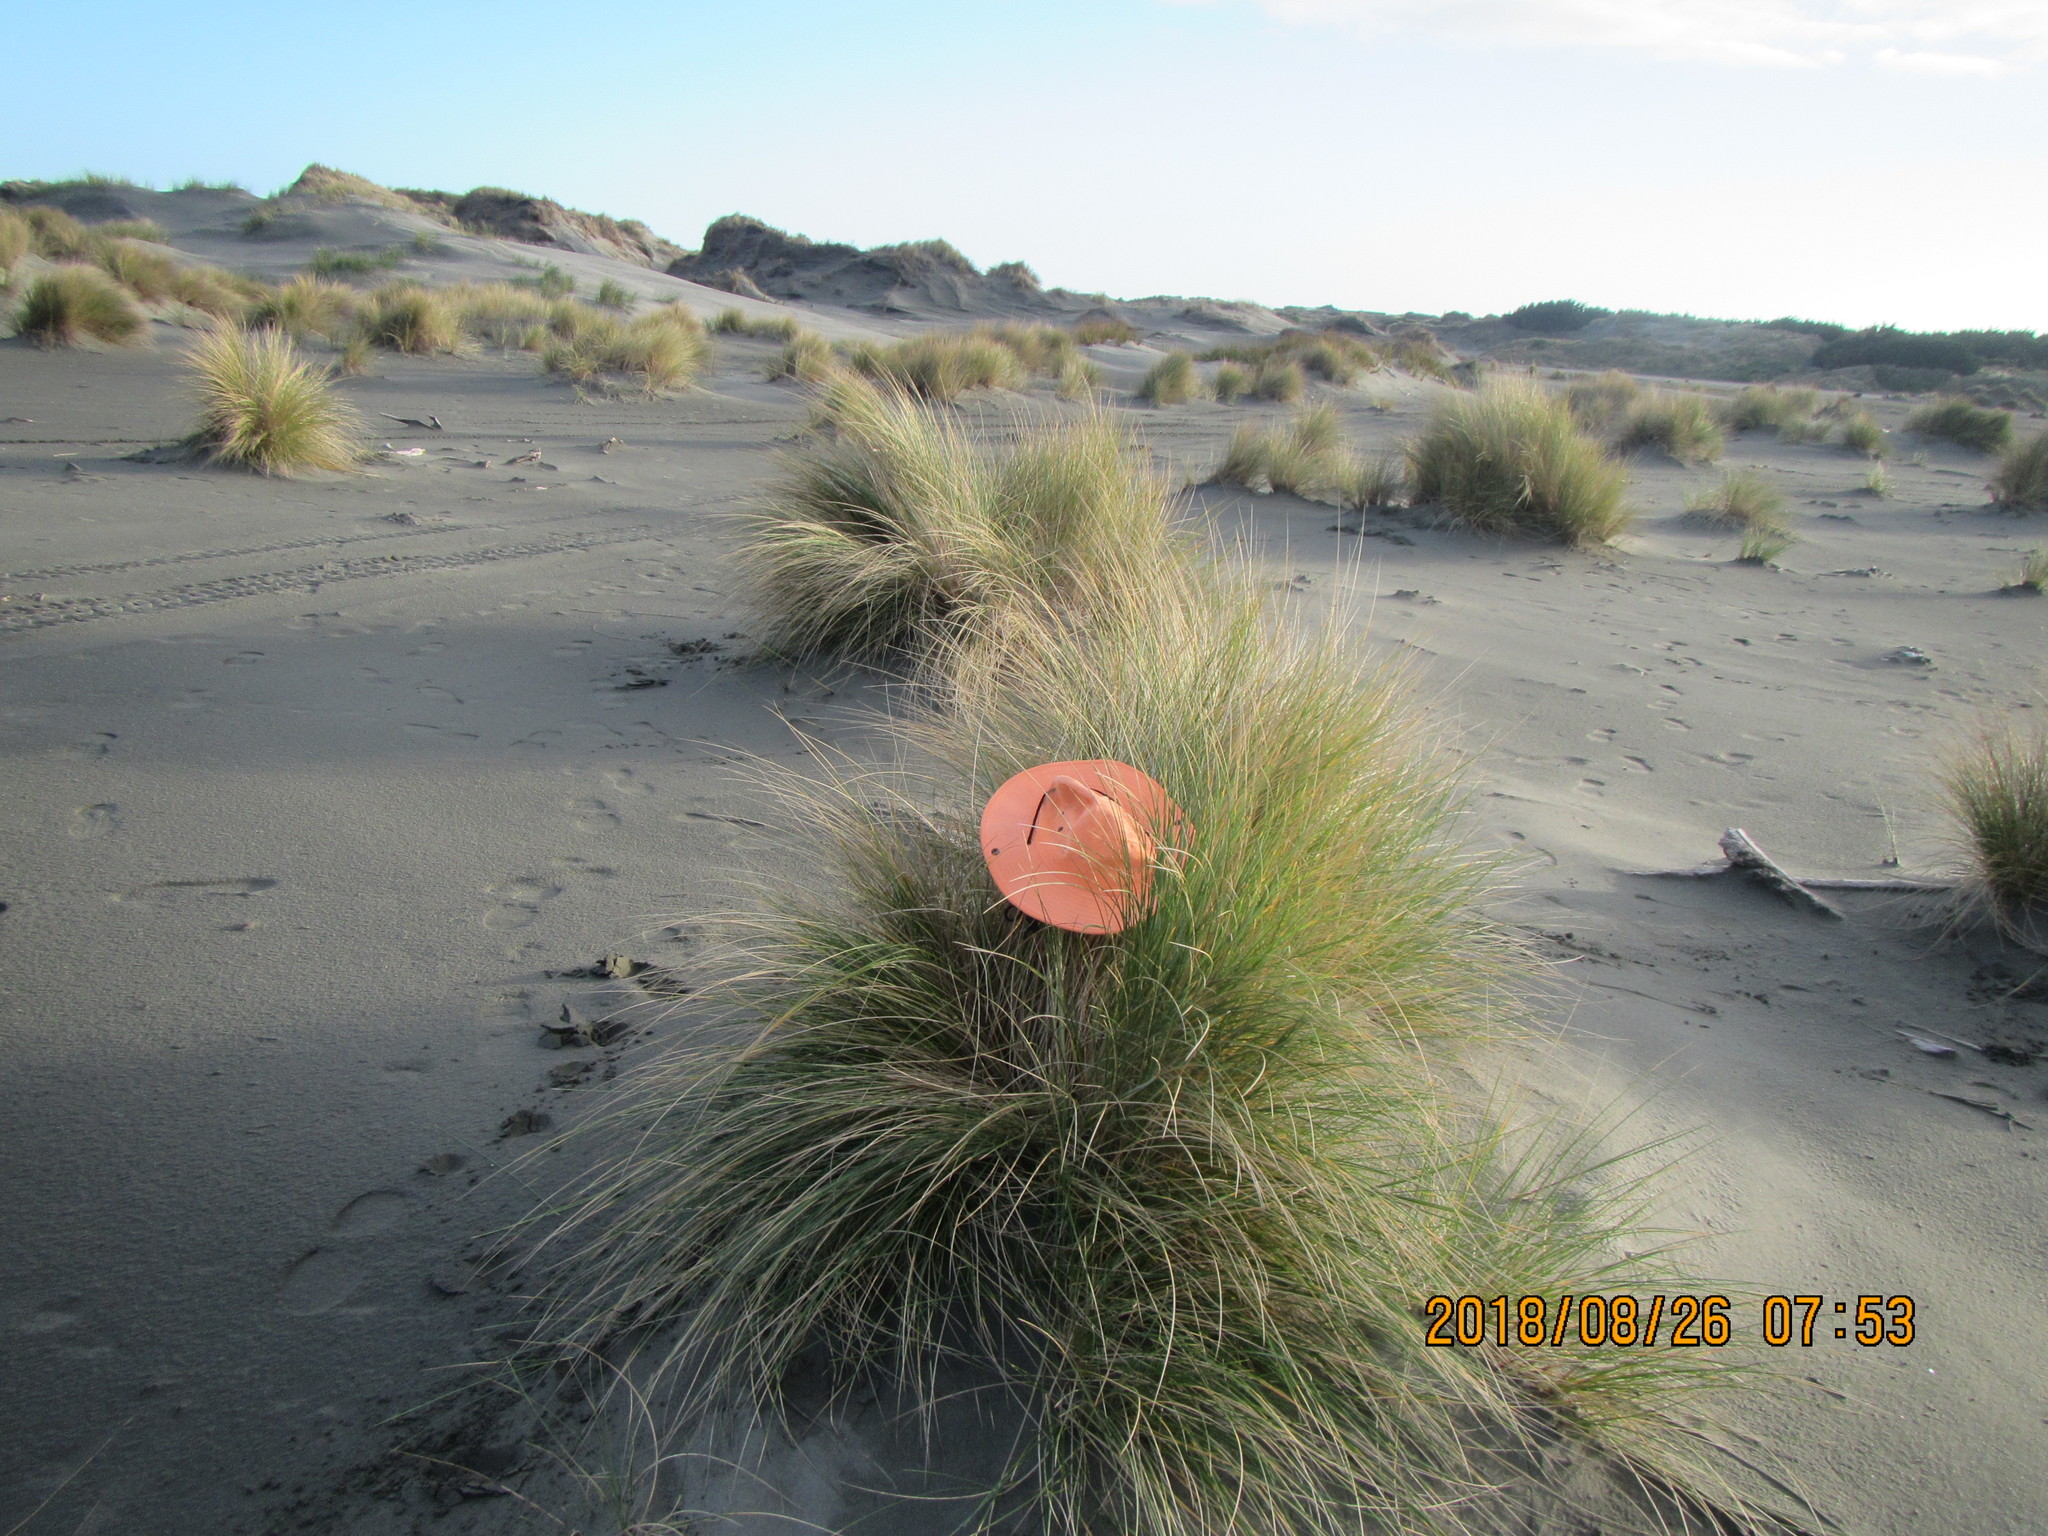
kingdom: Animalia
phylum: Arthropoda
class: Arachnida
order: Araneae
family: Thomisidae
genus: Sidymella
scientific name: Sidymella trapezia
